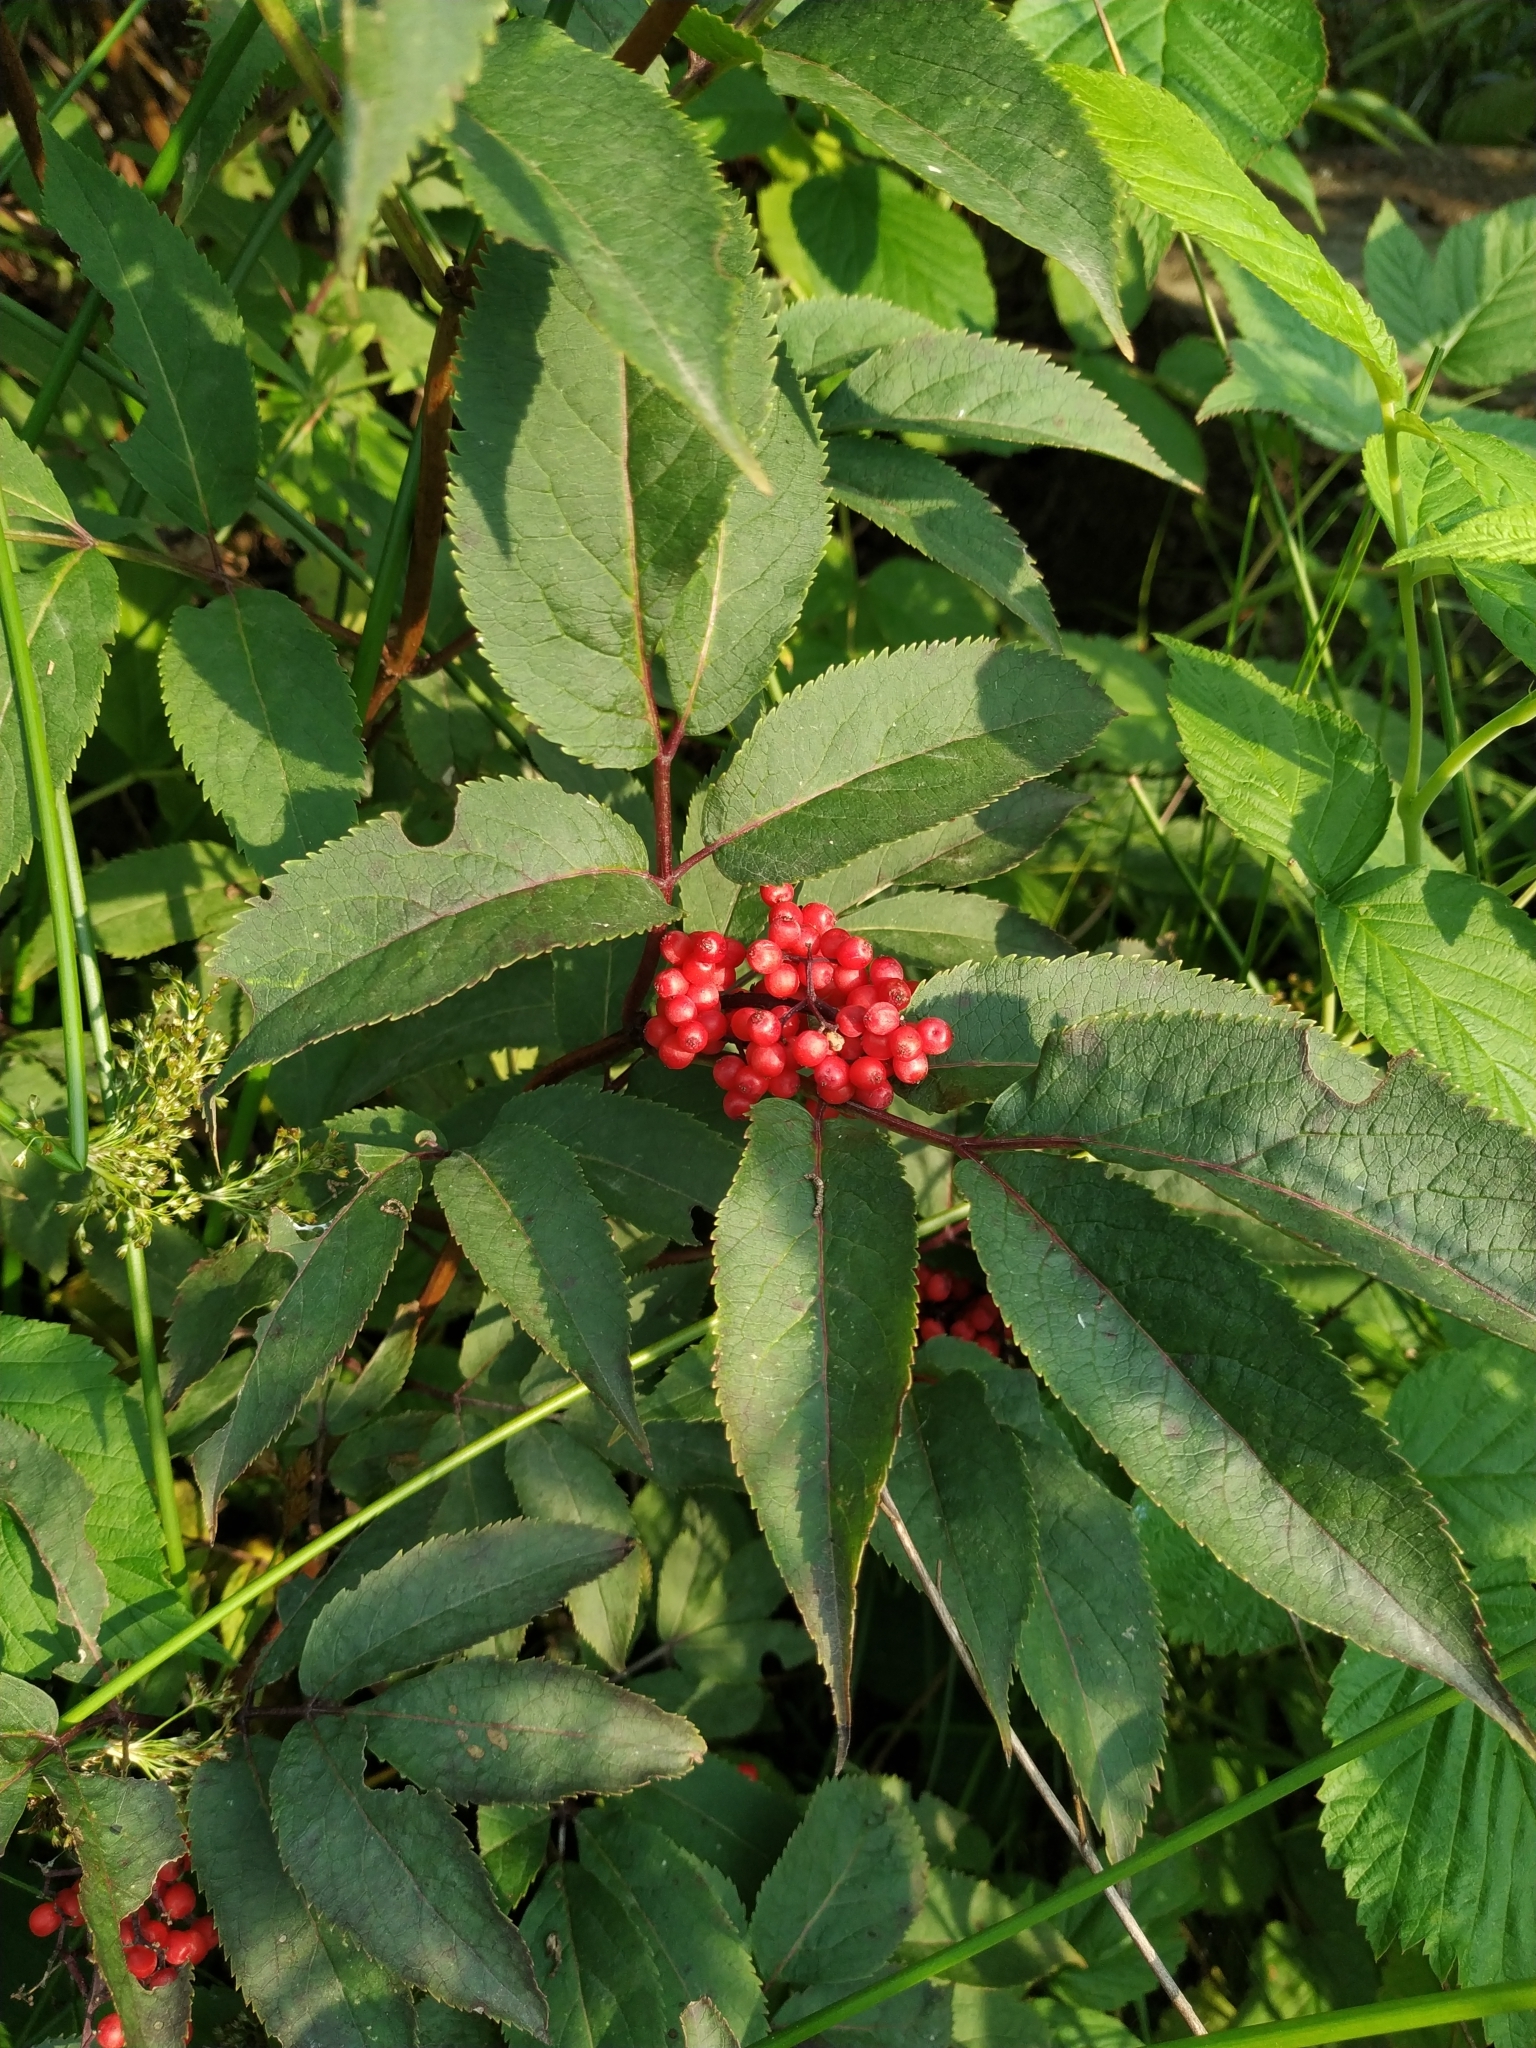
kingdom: Plantae
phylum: Tracheophyta
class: Magnoliopsida
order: Dipsacales
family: Viburnaceae
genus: Sambucus
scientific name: Sambucus racemosa
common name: Red-berried elder
